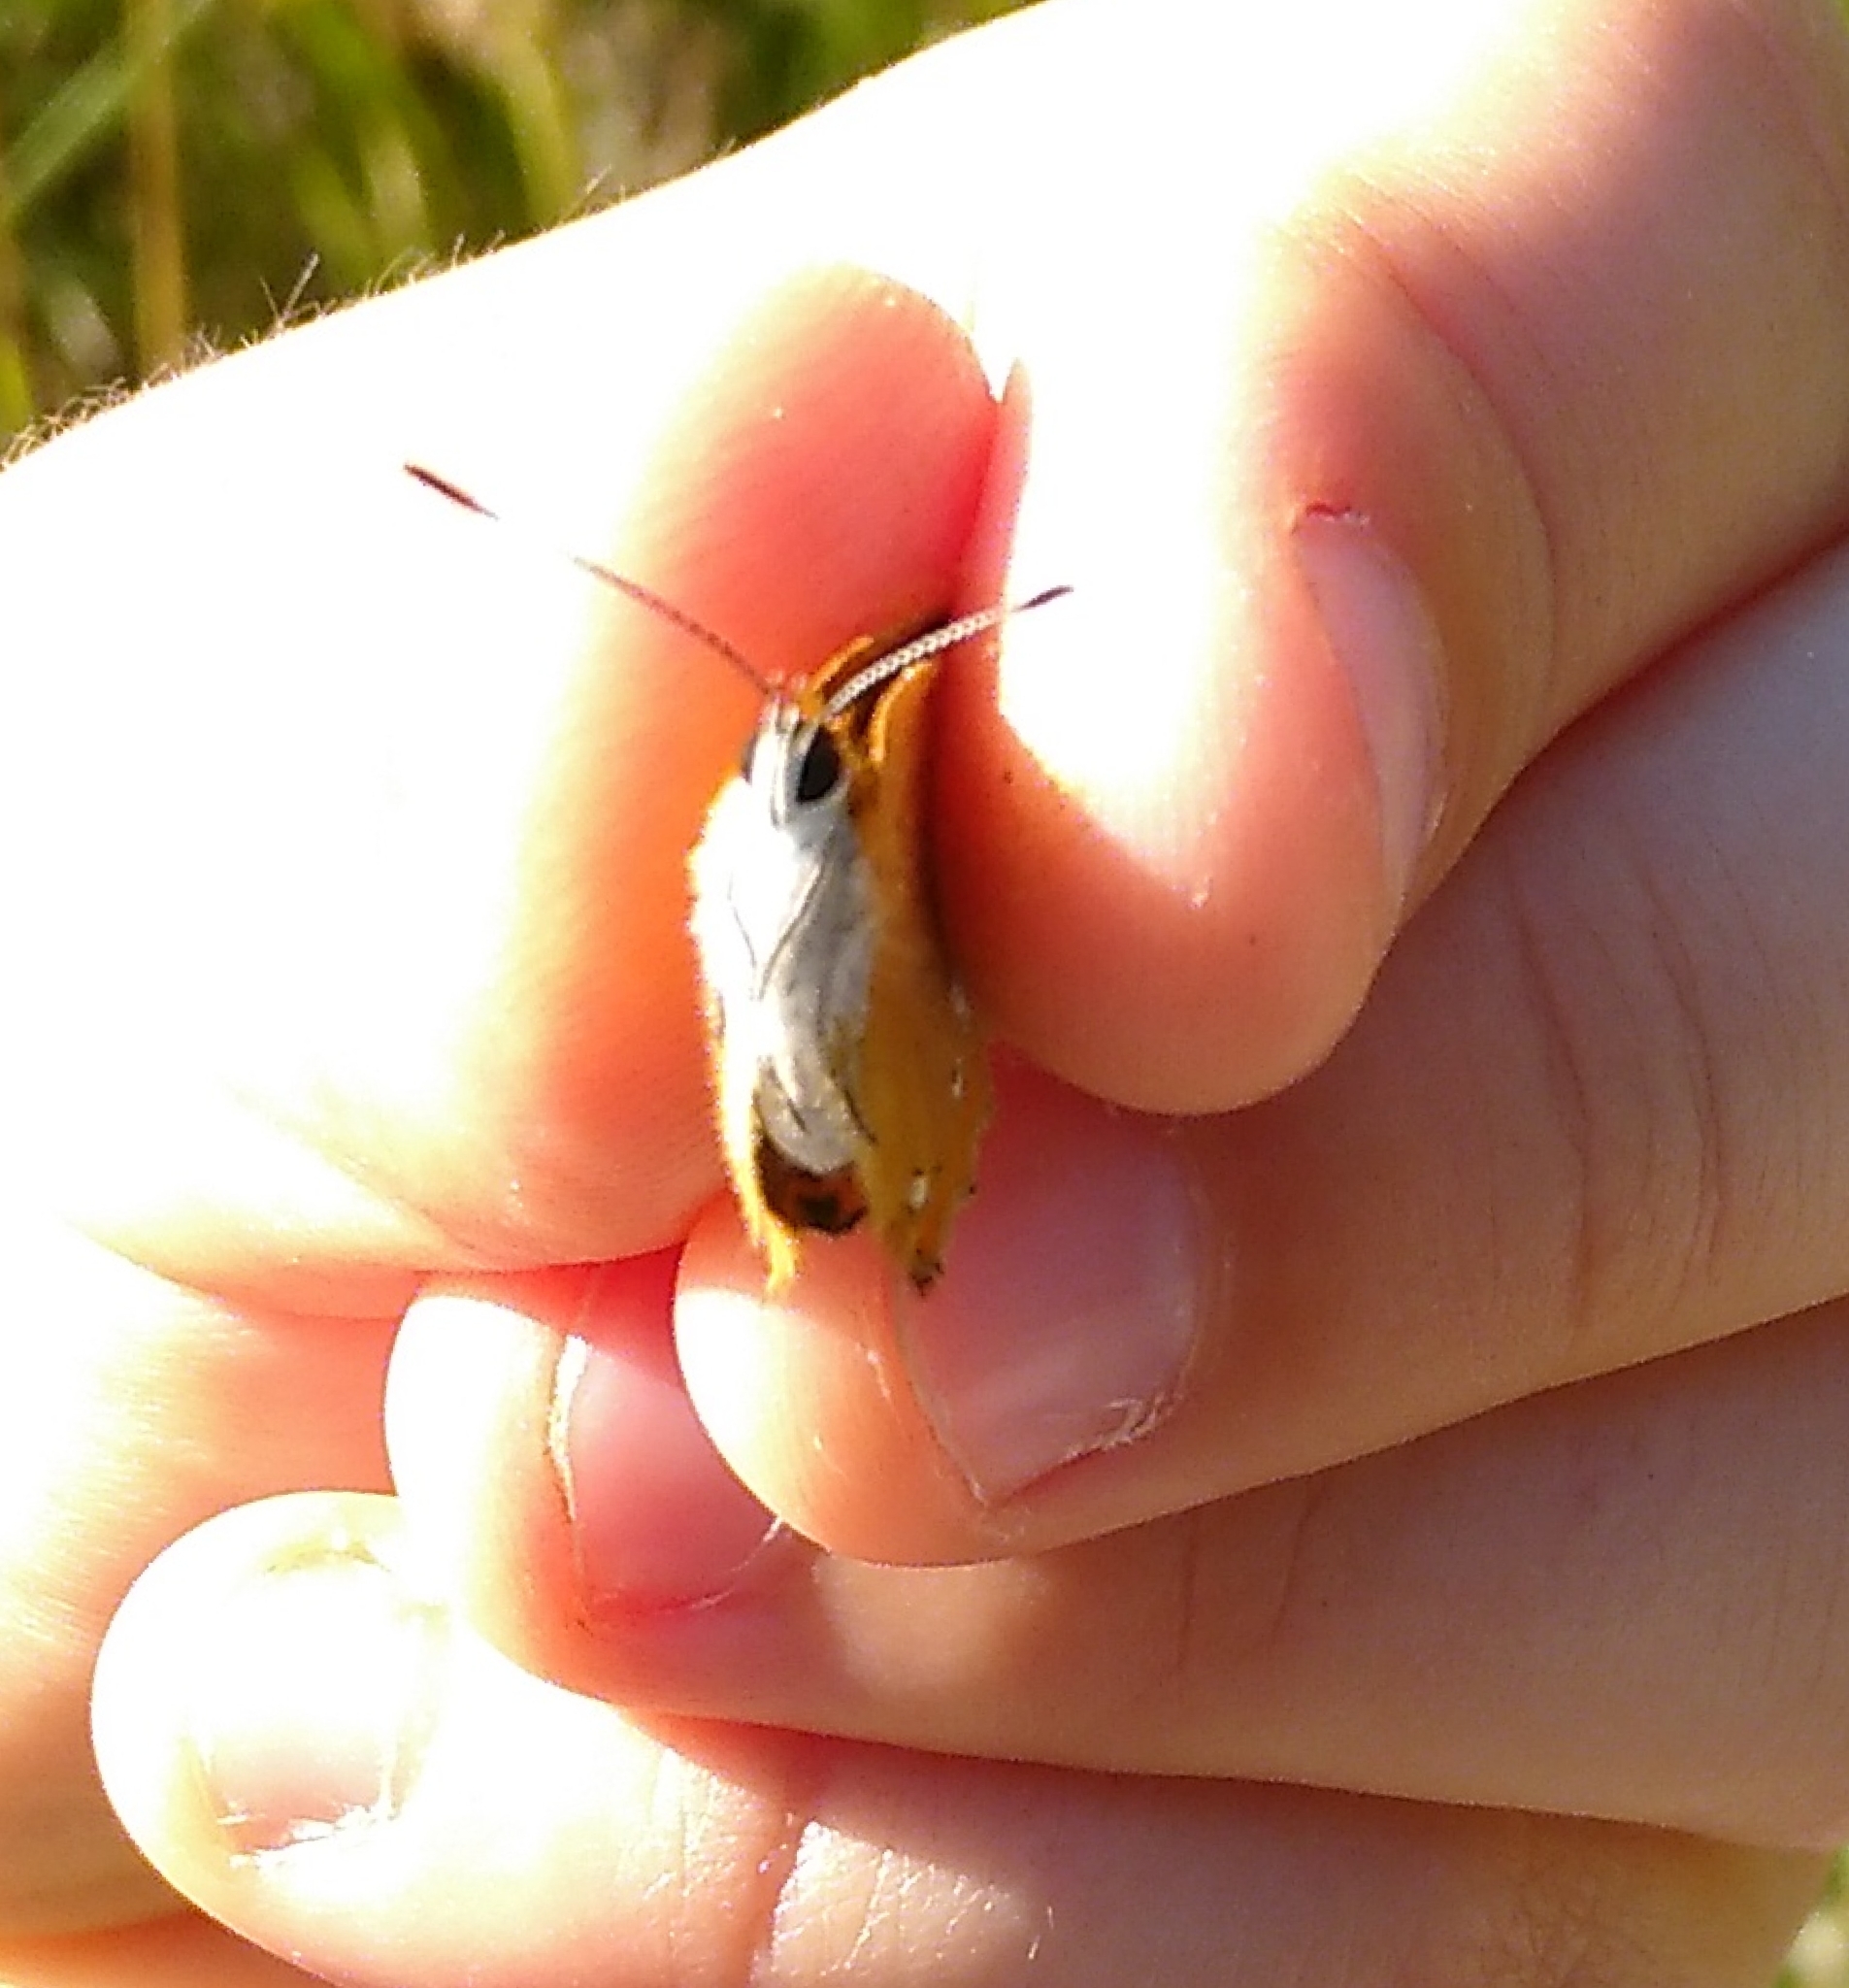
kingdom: Animalia
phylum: Arthropoda
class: Insecta
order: Lepidoptera
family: Lycaenidae
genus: Lycaena
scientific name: Lycaena virgaureae
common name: Scarce copper
